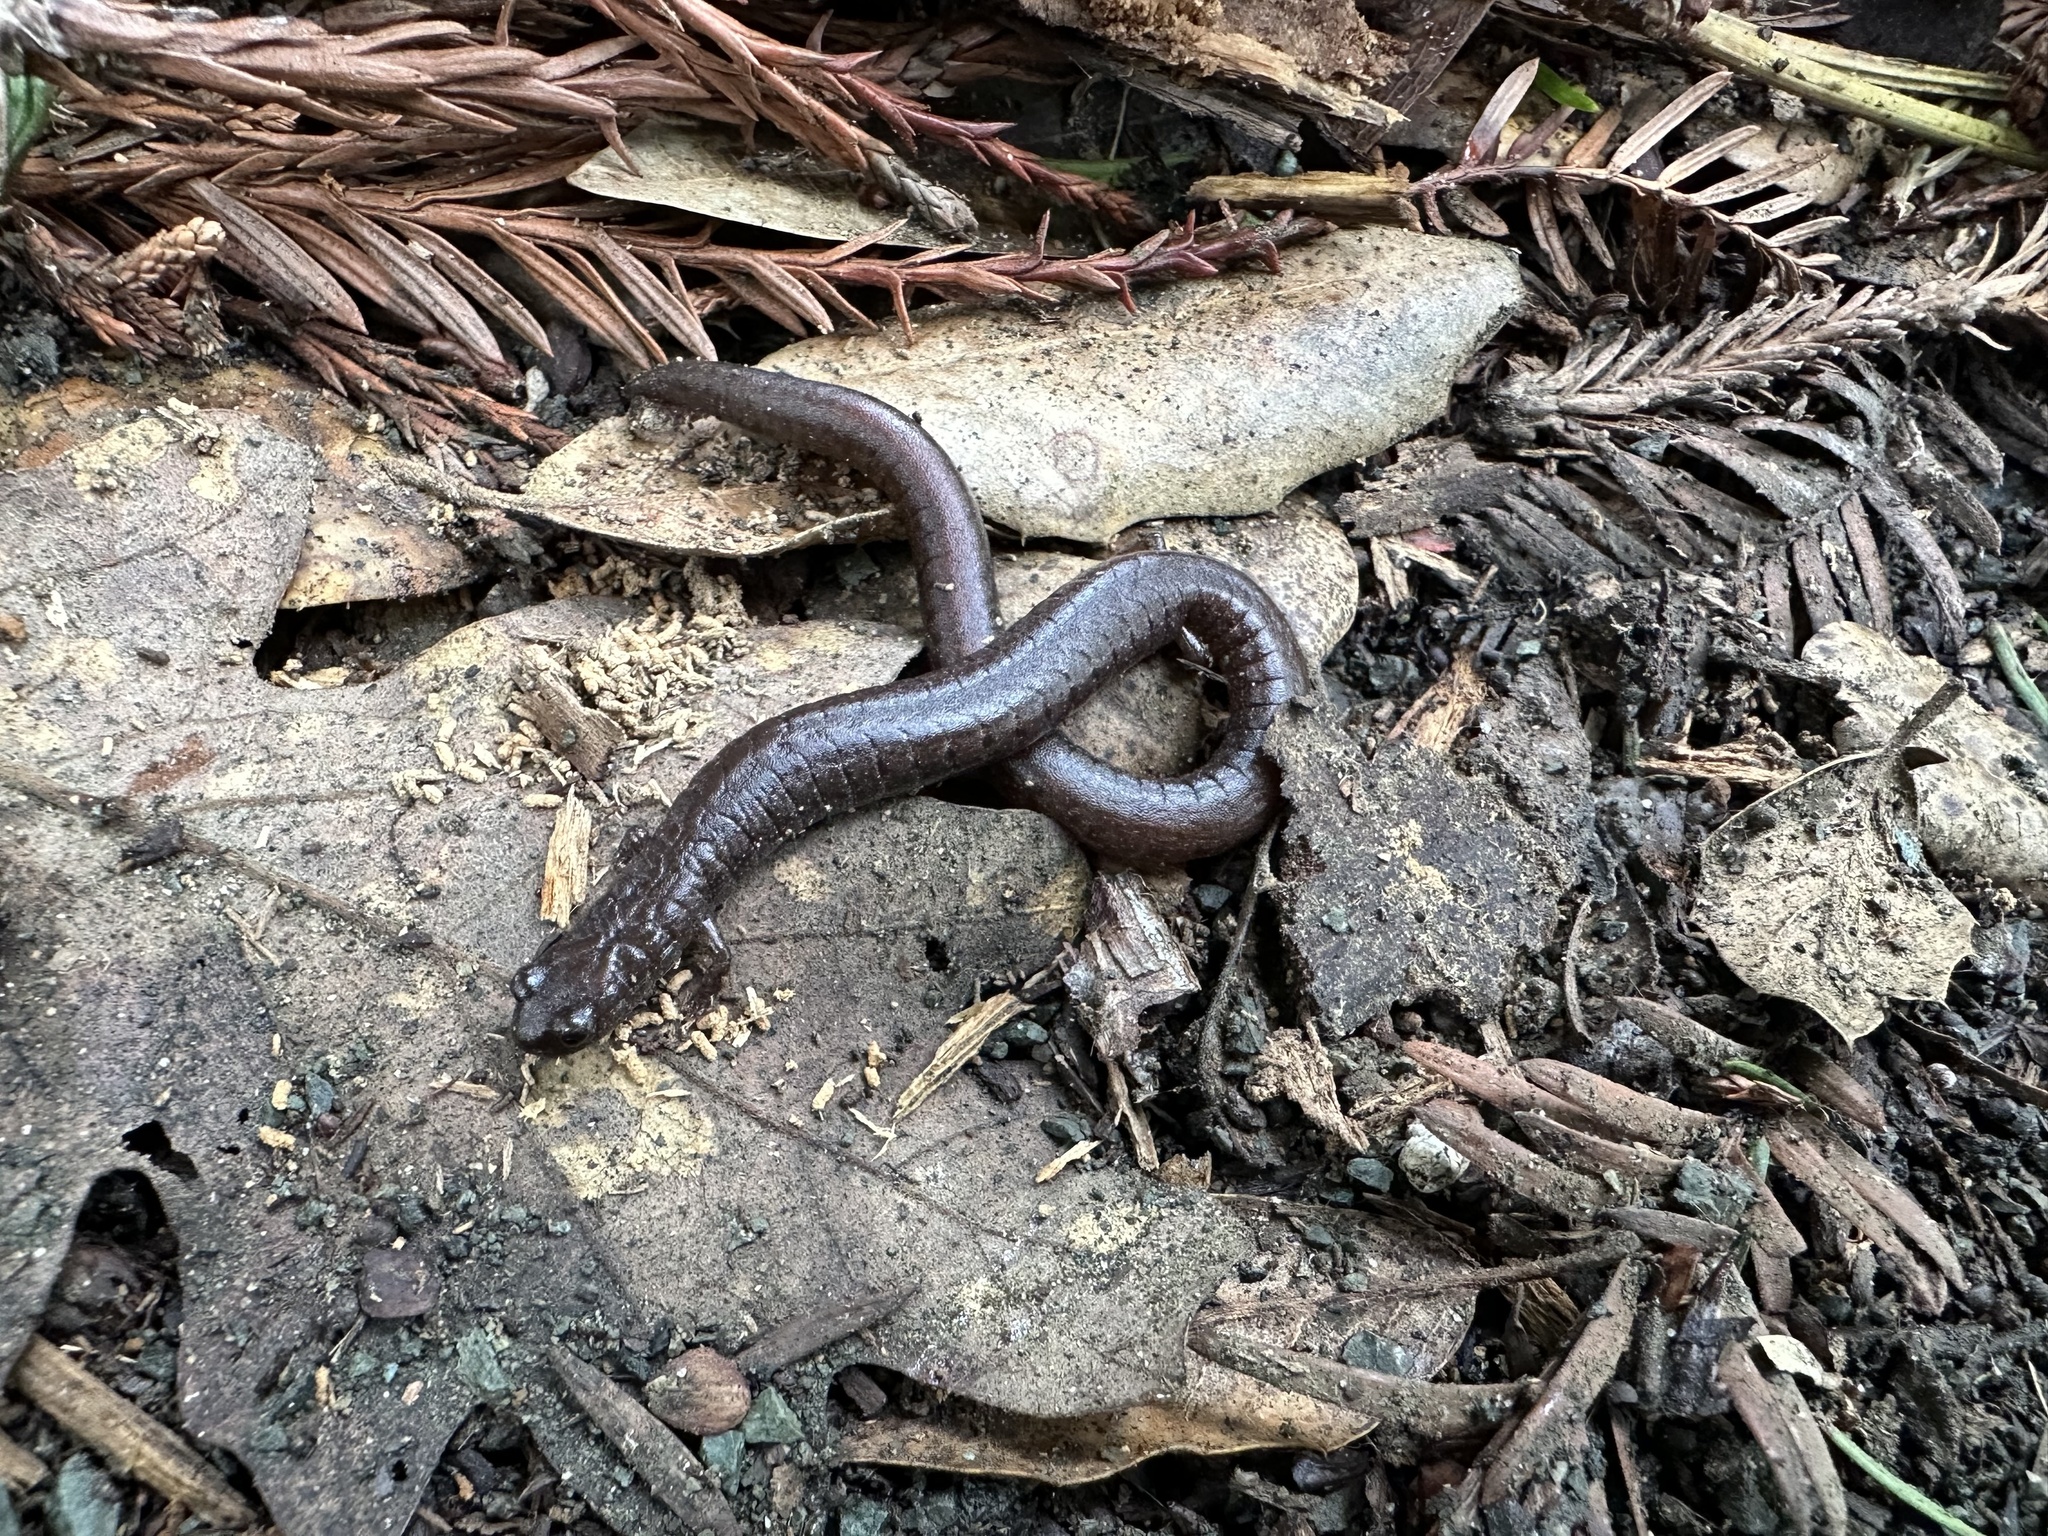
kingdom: Animalia
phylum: Chordata
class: Amphibia
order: Caudata
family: Plethodontidae
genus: Batrachoseps
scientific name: Batrachoseps attenuatus
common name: California slender salamander
